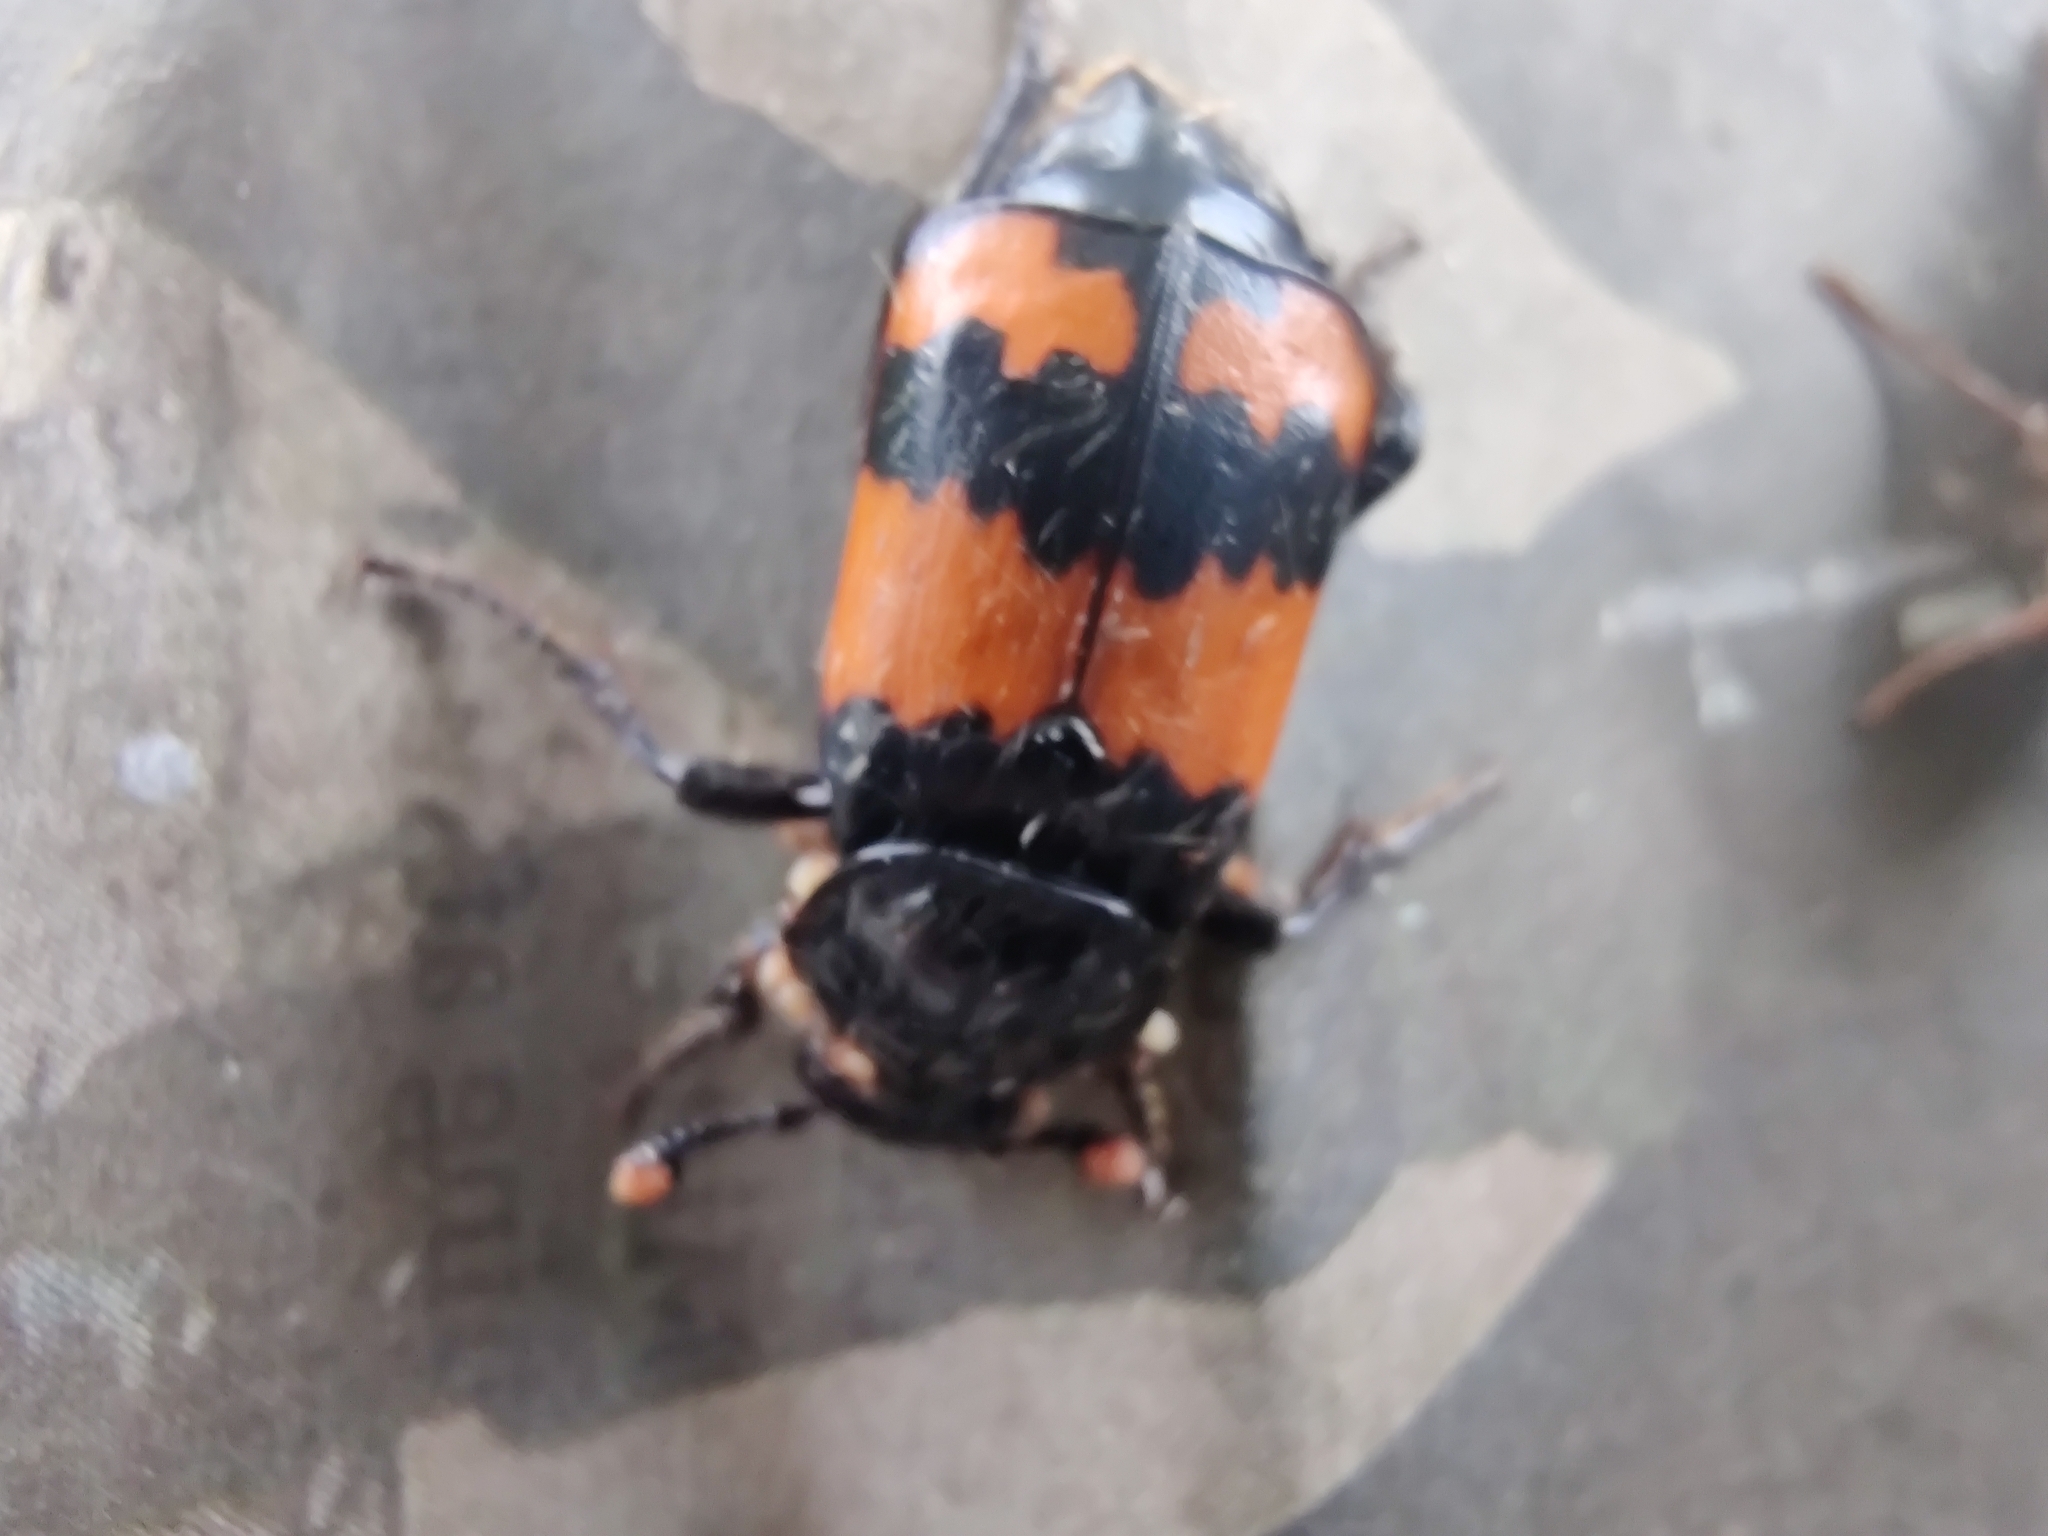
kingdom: Animalia
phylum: Arthropoda
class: Insecta
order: Coleoptera
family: Staphylinidae
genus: Nicrophorus
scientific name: Nicrophorus investigator
